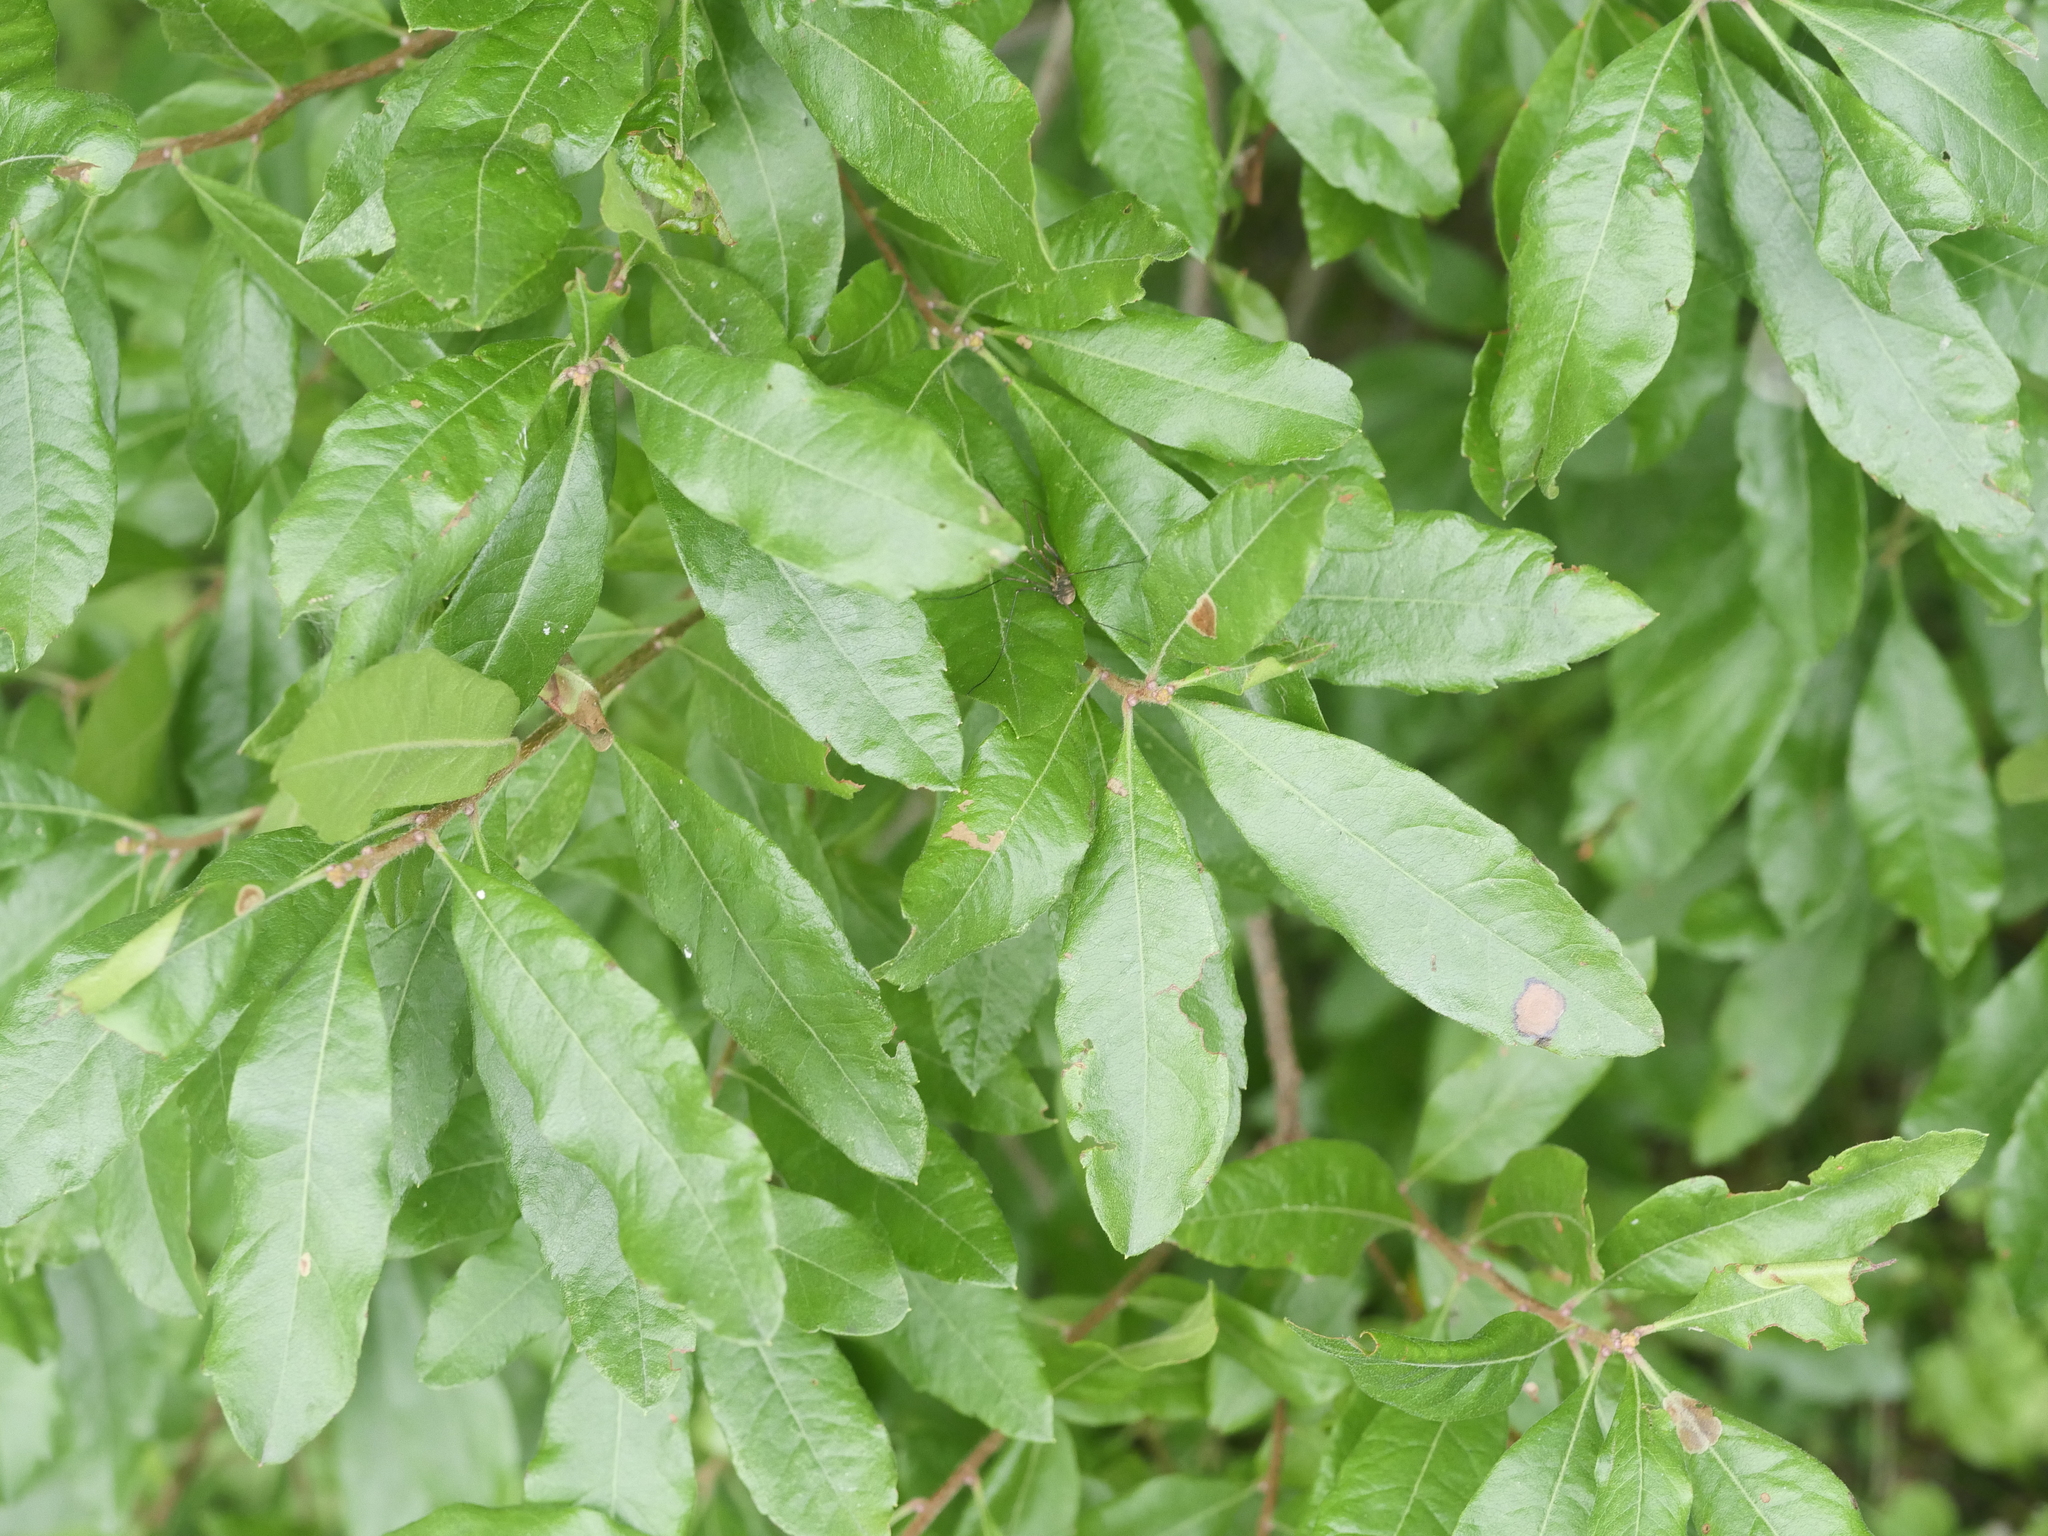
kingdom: Plantae
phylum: Tracheophyta
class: Magnoliopsida
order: Fagales
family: Myricaceae
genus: Morella
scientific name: Morella pensylvanica
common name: Northern bayberry
